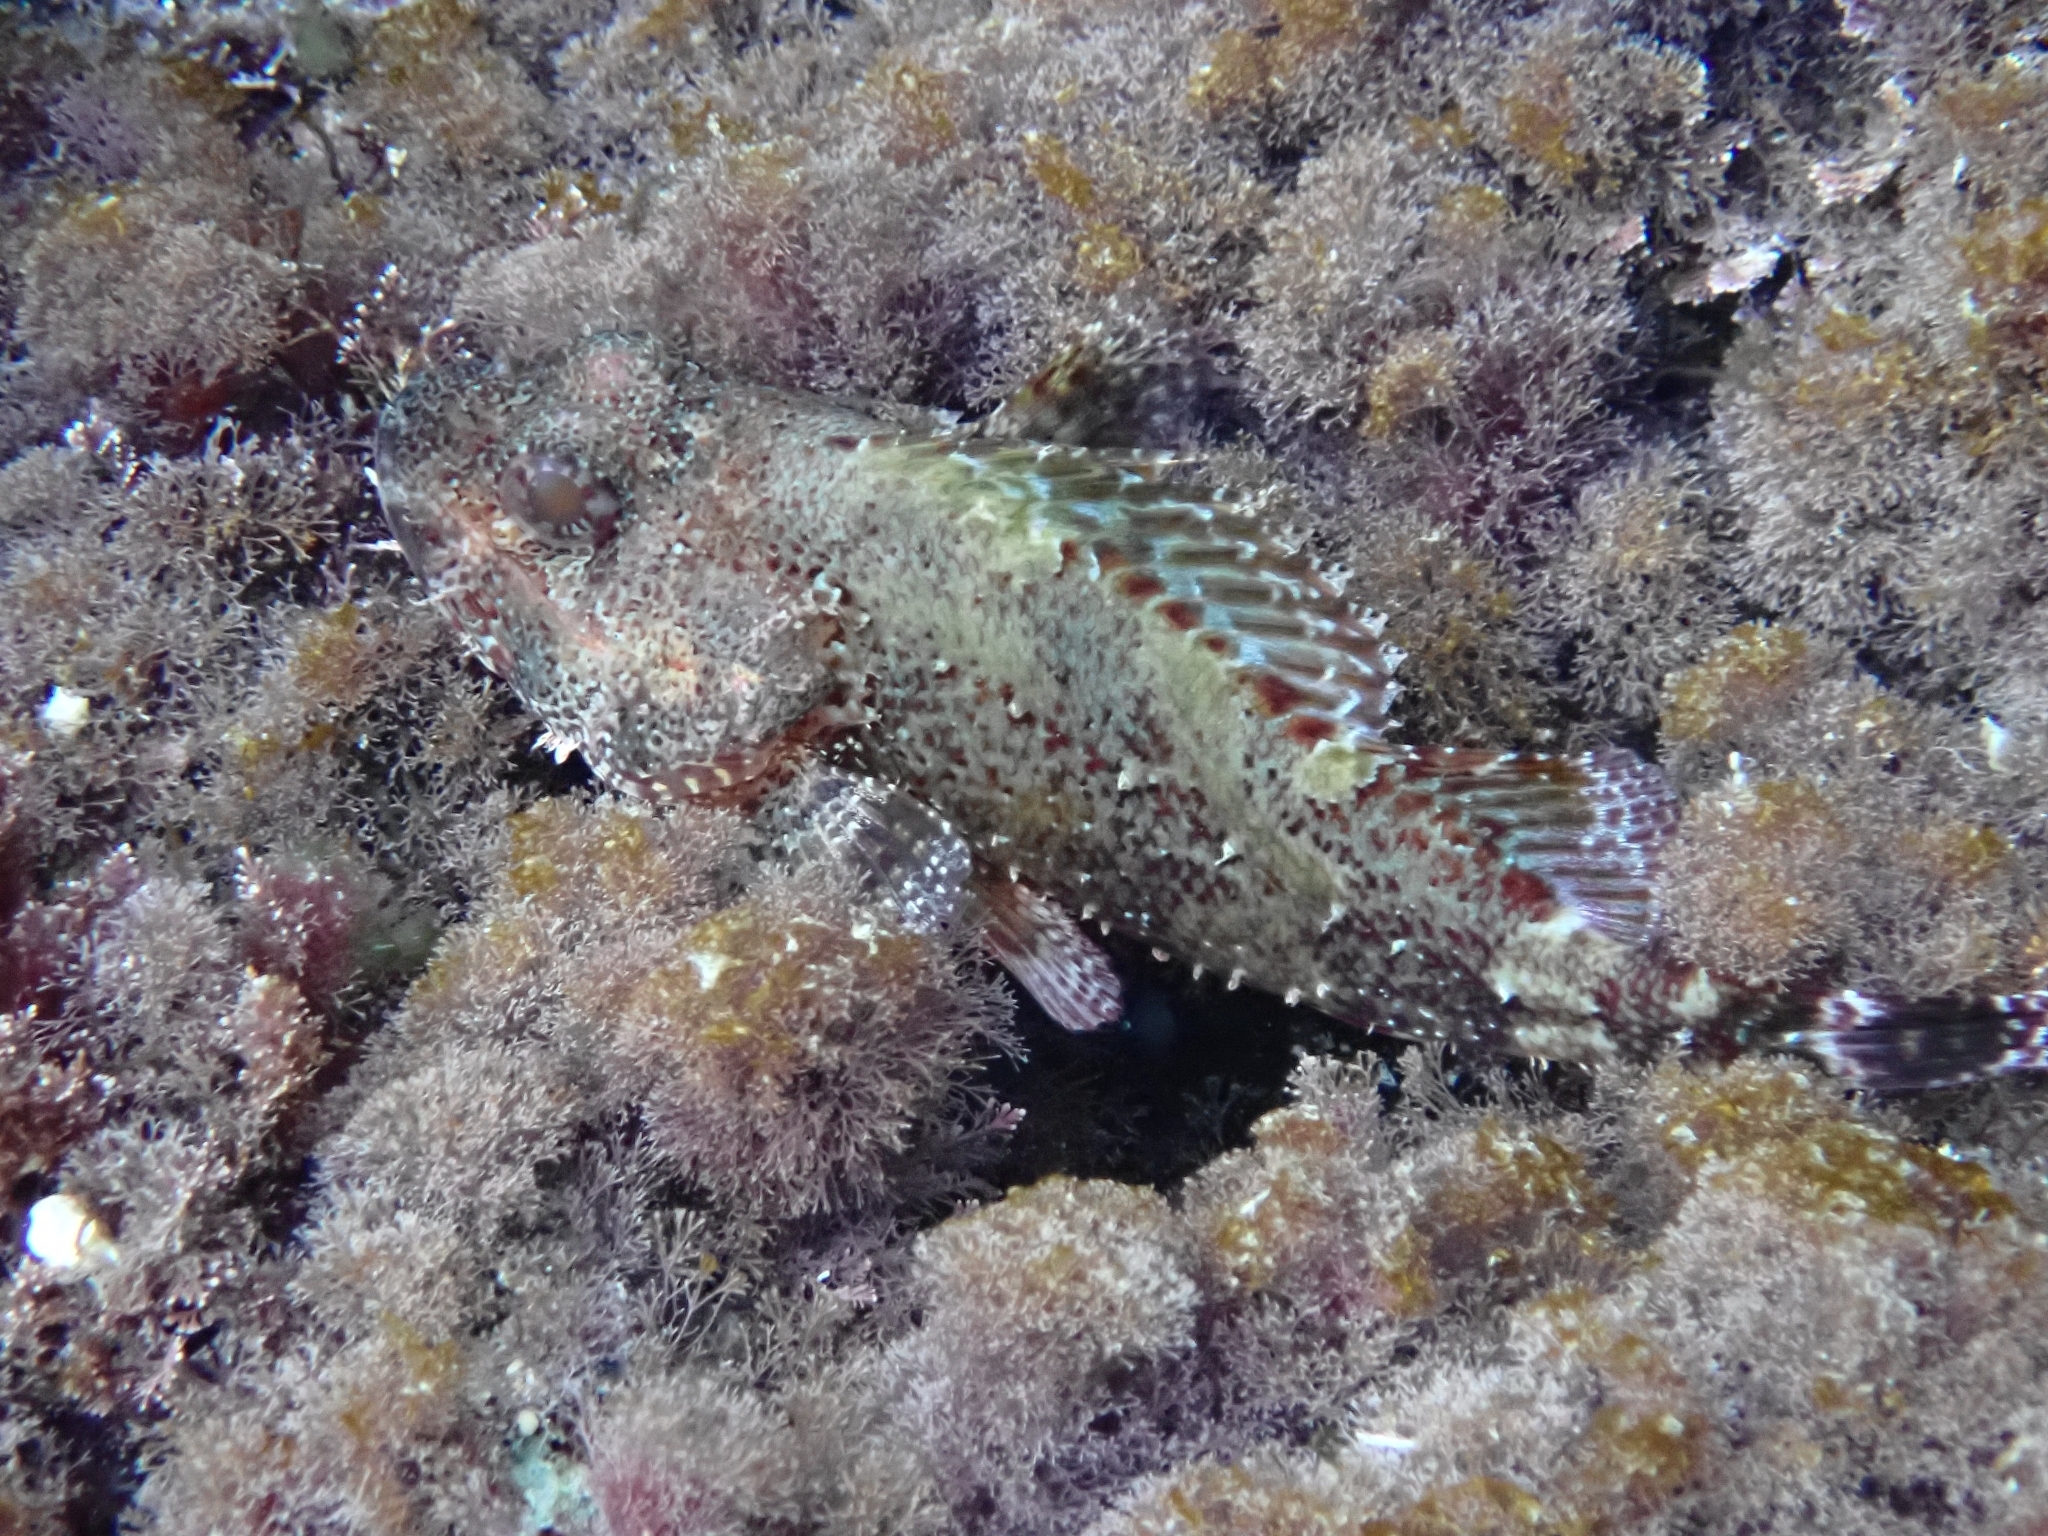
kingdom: Animalia
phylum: Chordata
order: Scorpaeniformes
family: Scorpaenidae
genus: Scorpaena
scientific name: Scorpaena maderensis
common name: Madeira rockfish
